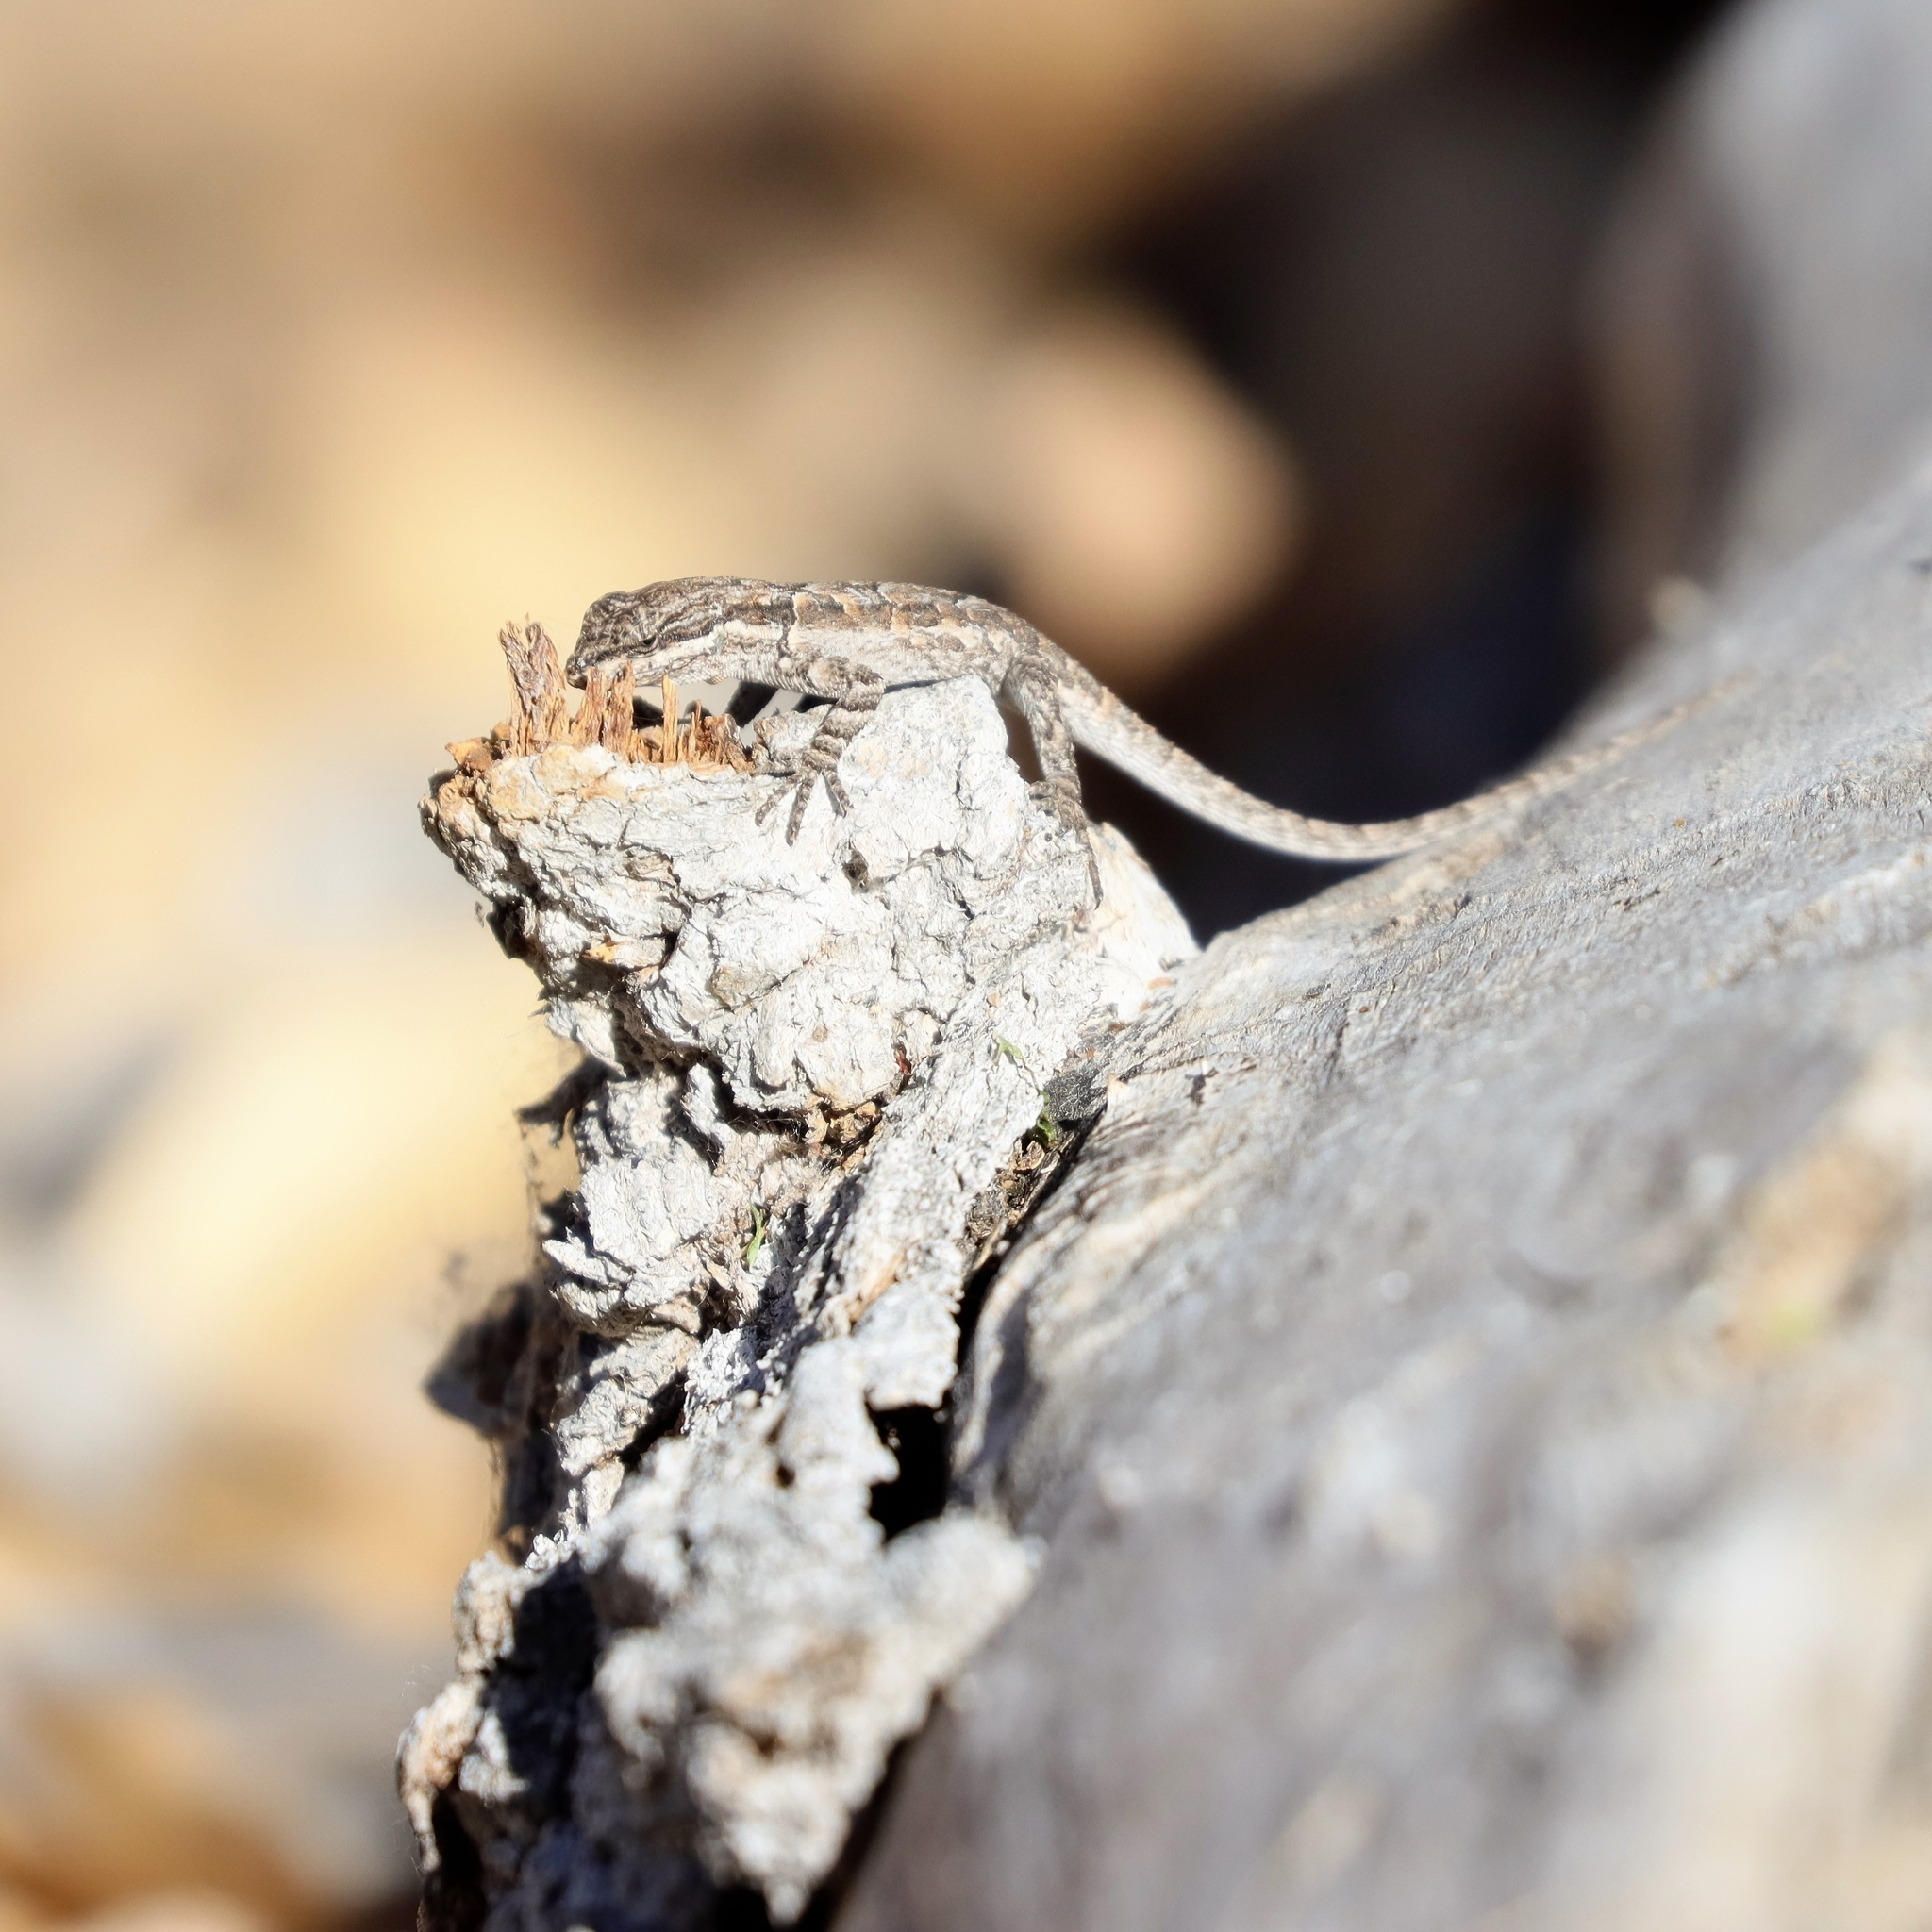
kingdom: Animalia
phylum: Chordata
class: Squamata
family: Phrynosomatidae
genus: Urosaurus
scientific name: Urosaurus ornatus
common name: Ornate tree lizard
